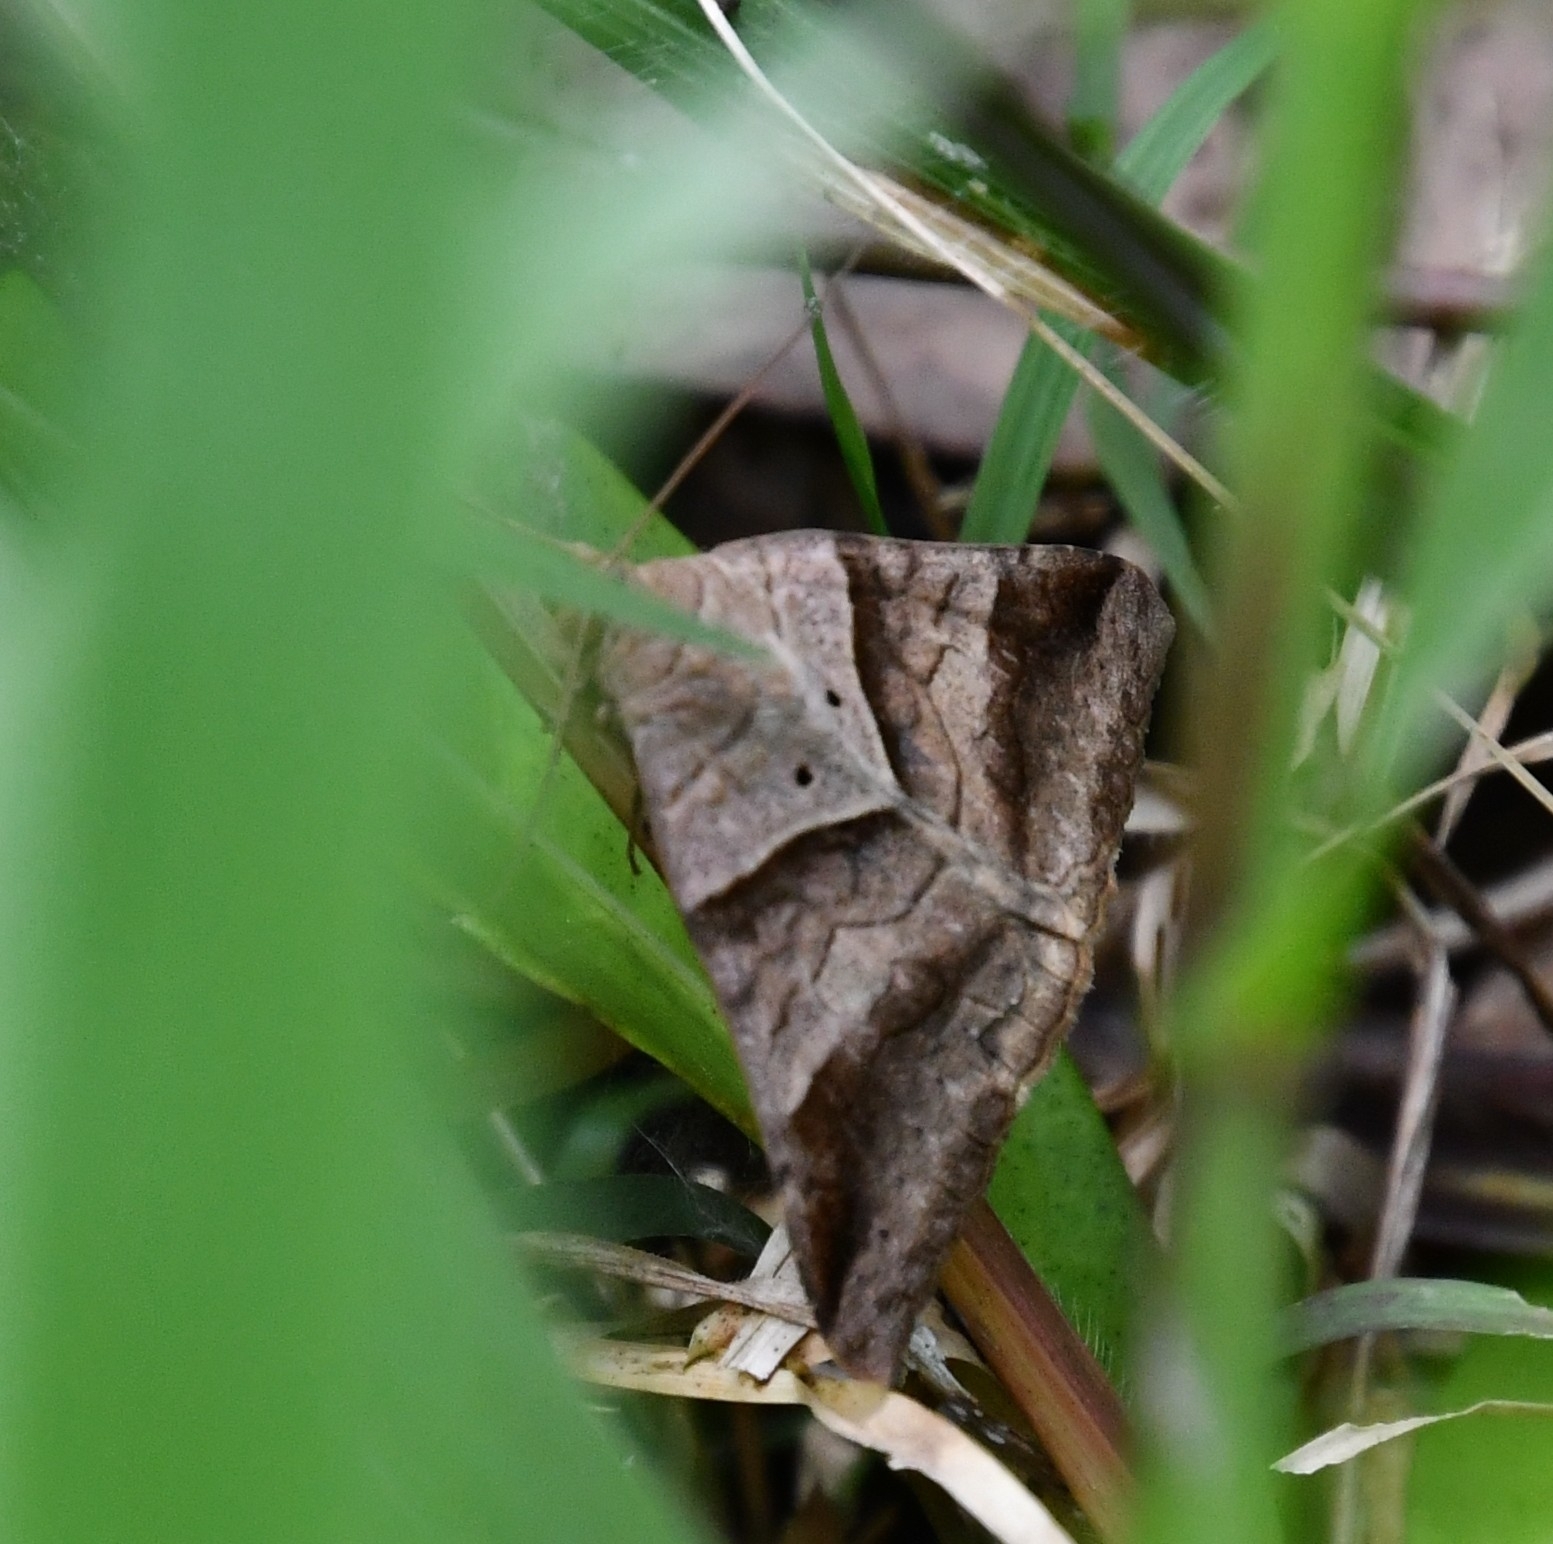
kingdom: Animalia
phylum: Arthropoda
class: Insecta
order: Lepidoptera
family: Erebidae
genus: Mocis
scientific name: Mocis undata
